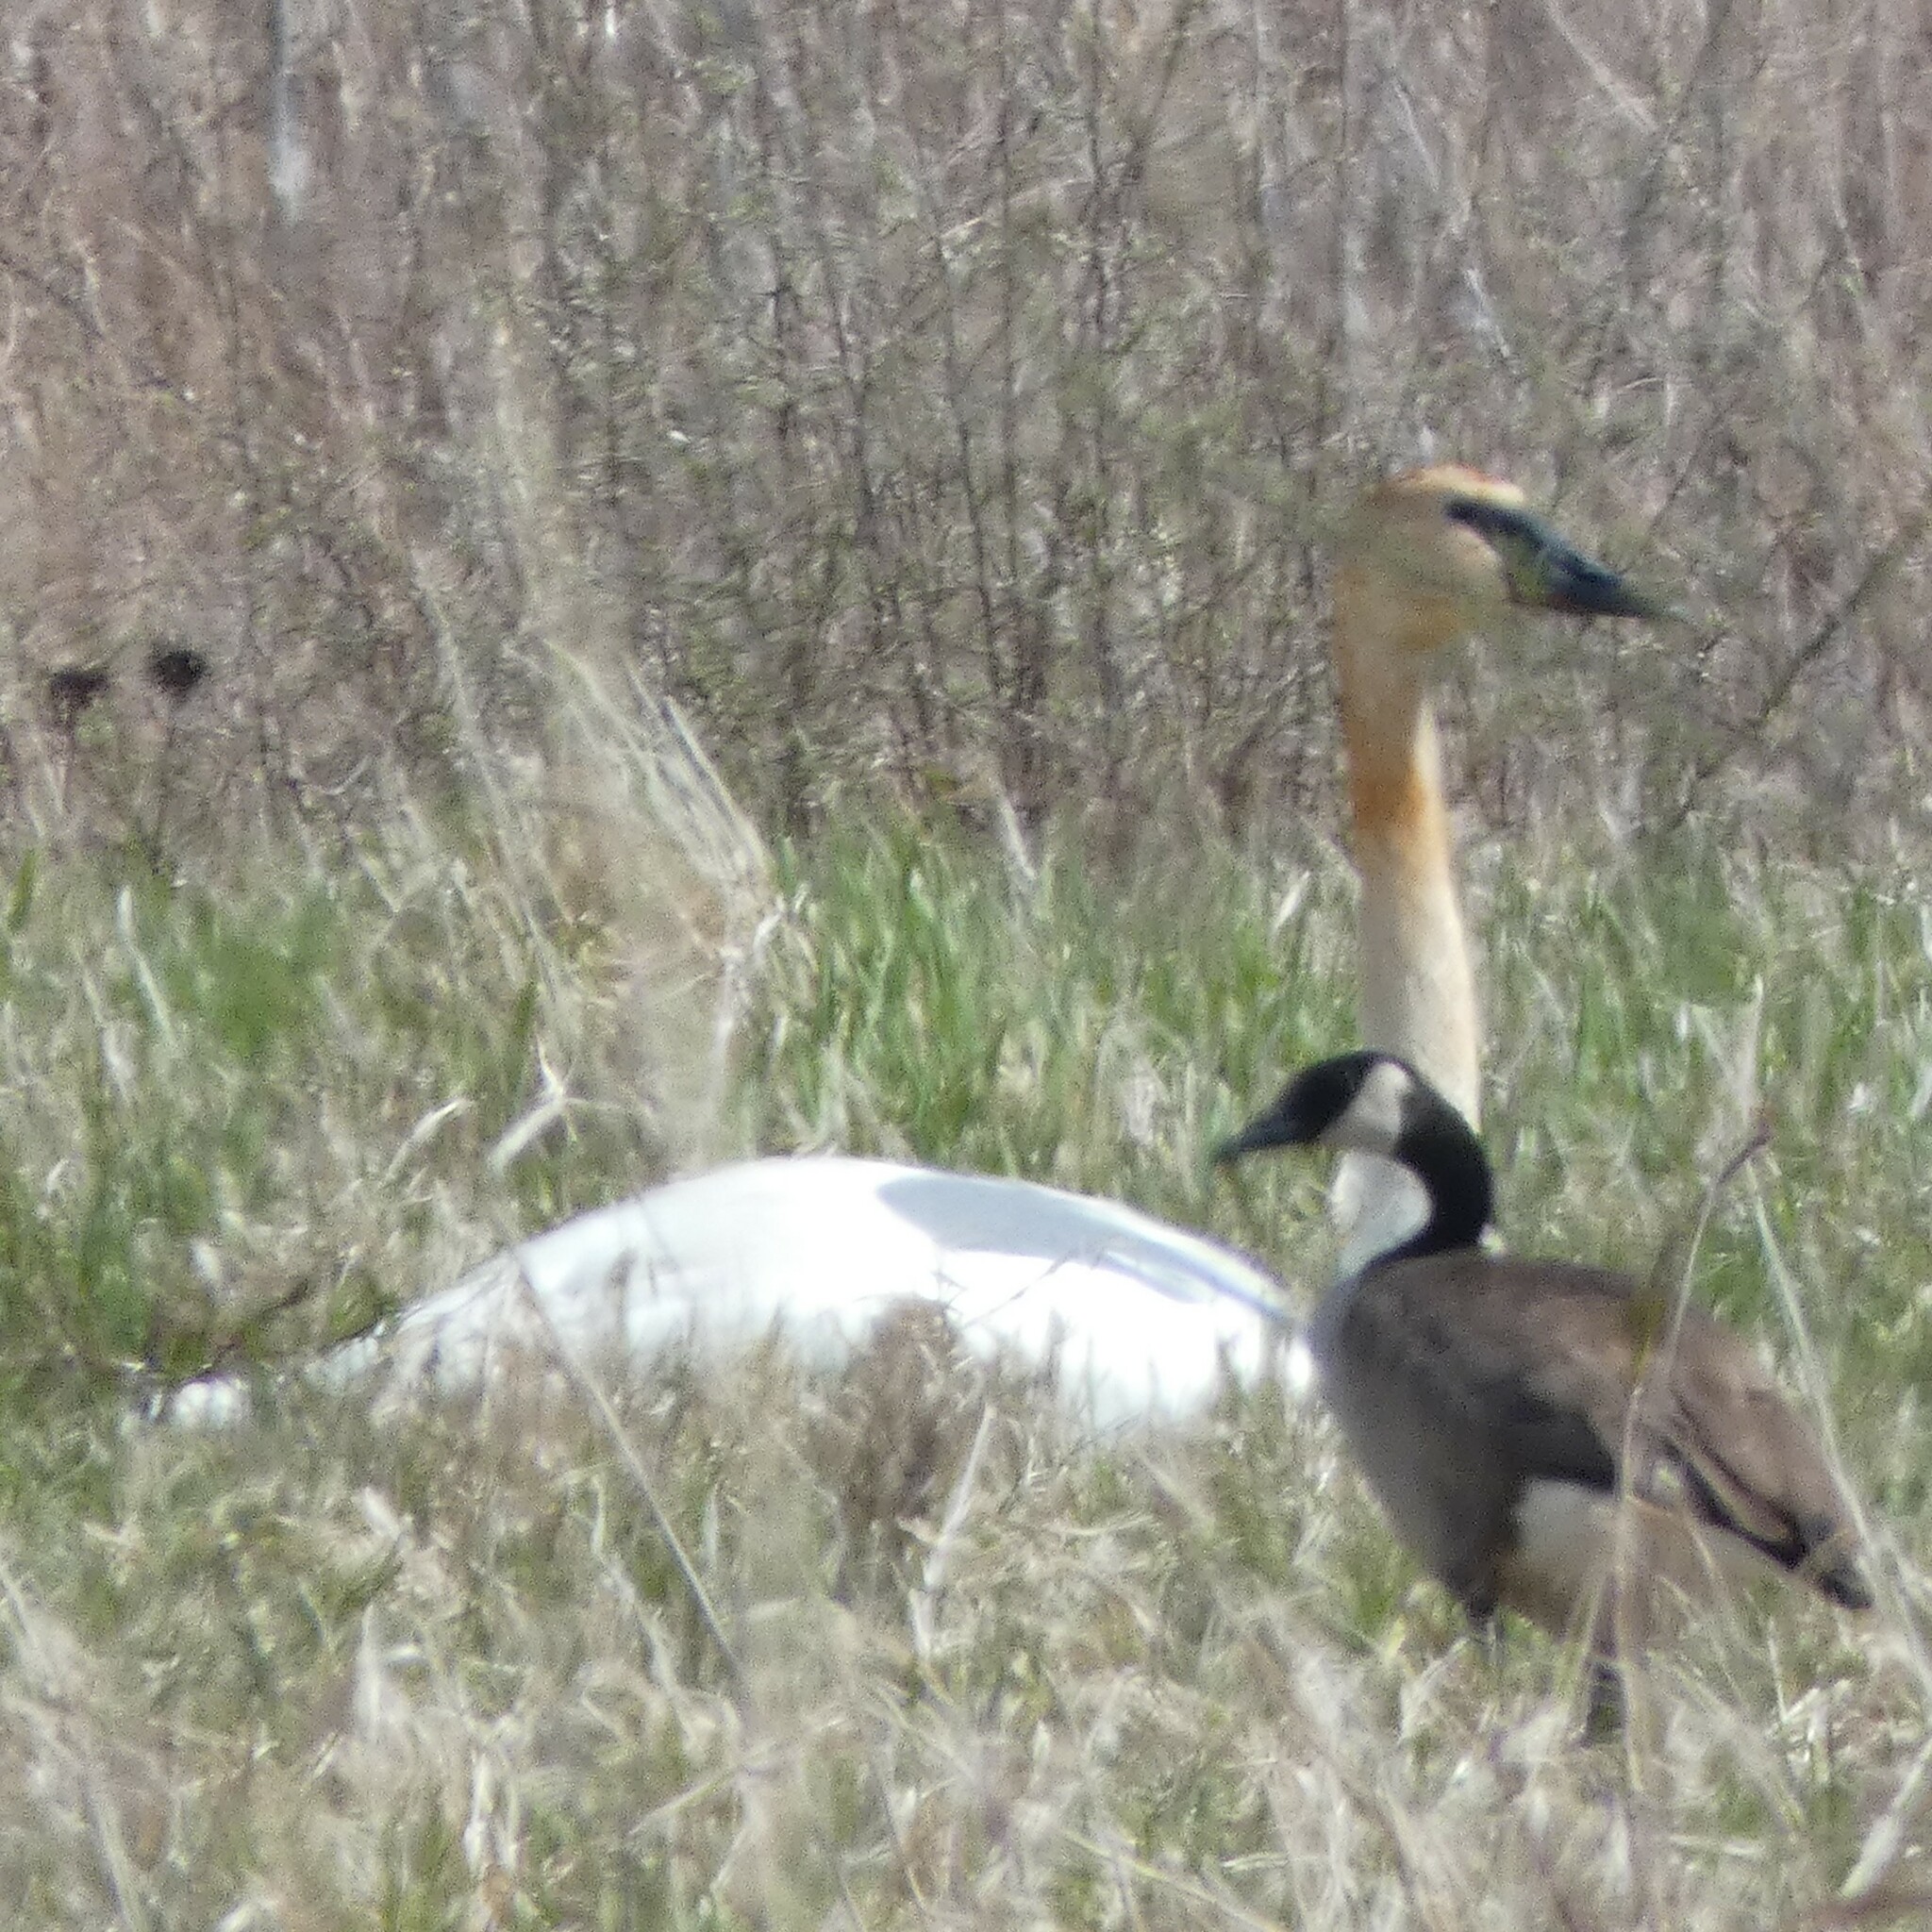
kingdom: Animalia
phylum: Chordata
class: Aves
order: Anseriformes
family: Anatidae
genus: Branta
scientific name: Branta canadensis
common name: Canada goose
